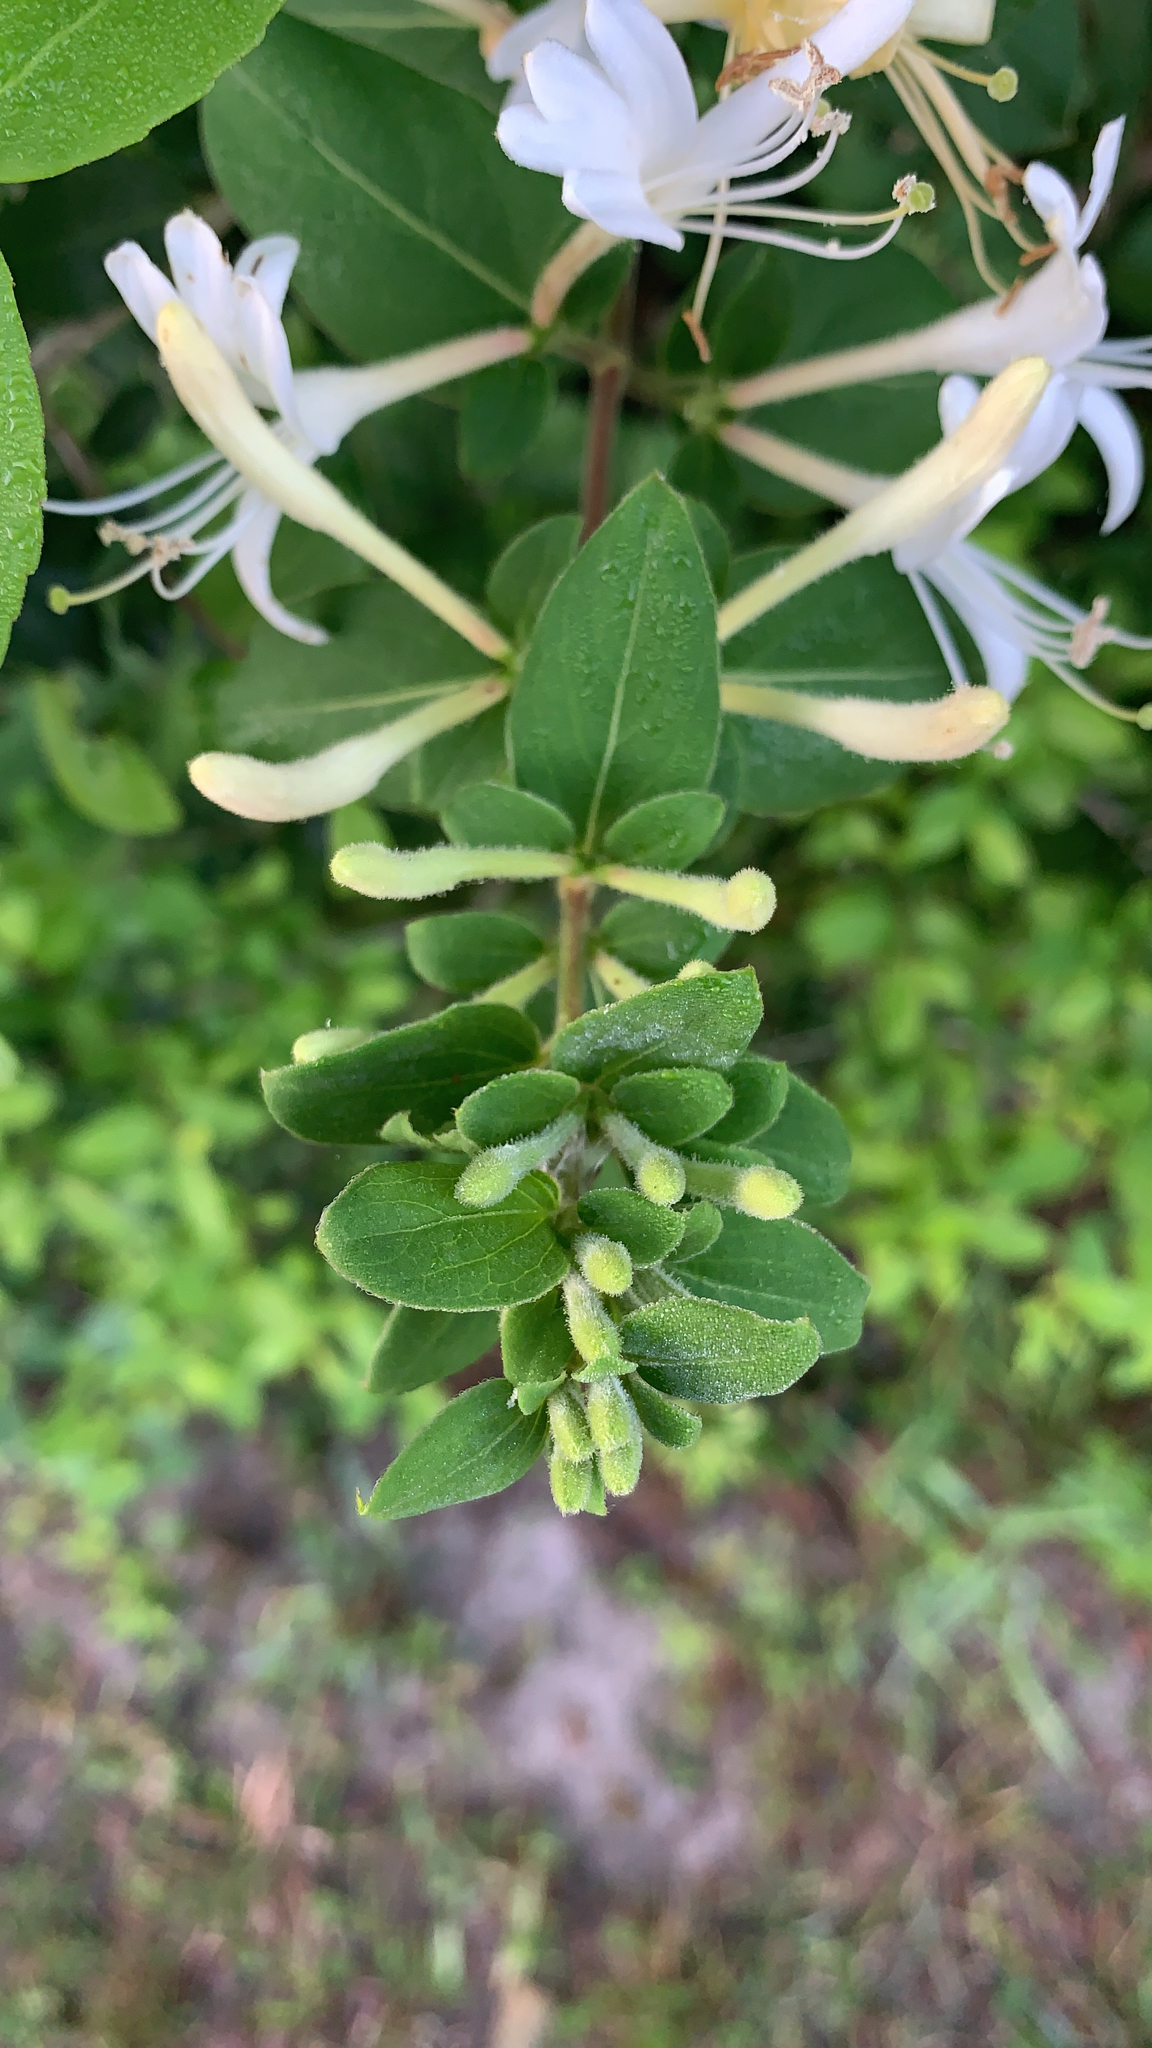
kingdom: Plantae
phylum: Tracheophyta
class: Magnoliopsida
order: Dipsacales
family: Caprifoliaceae
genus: Lonicera
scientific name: Lonicera japonica
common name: Japanese honeysuckle
